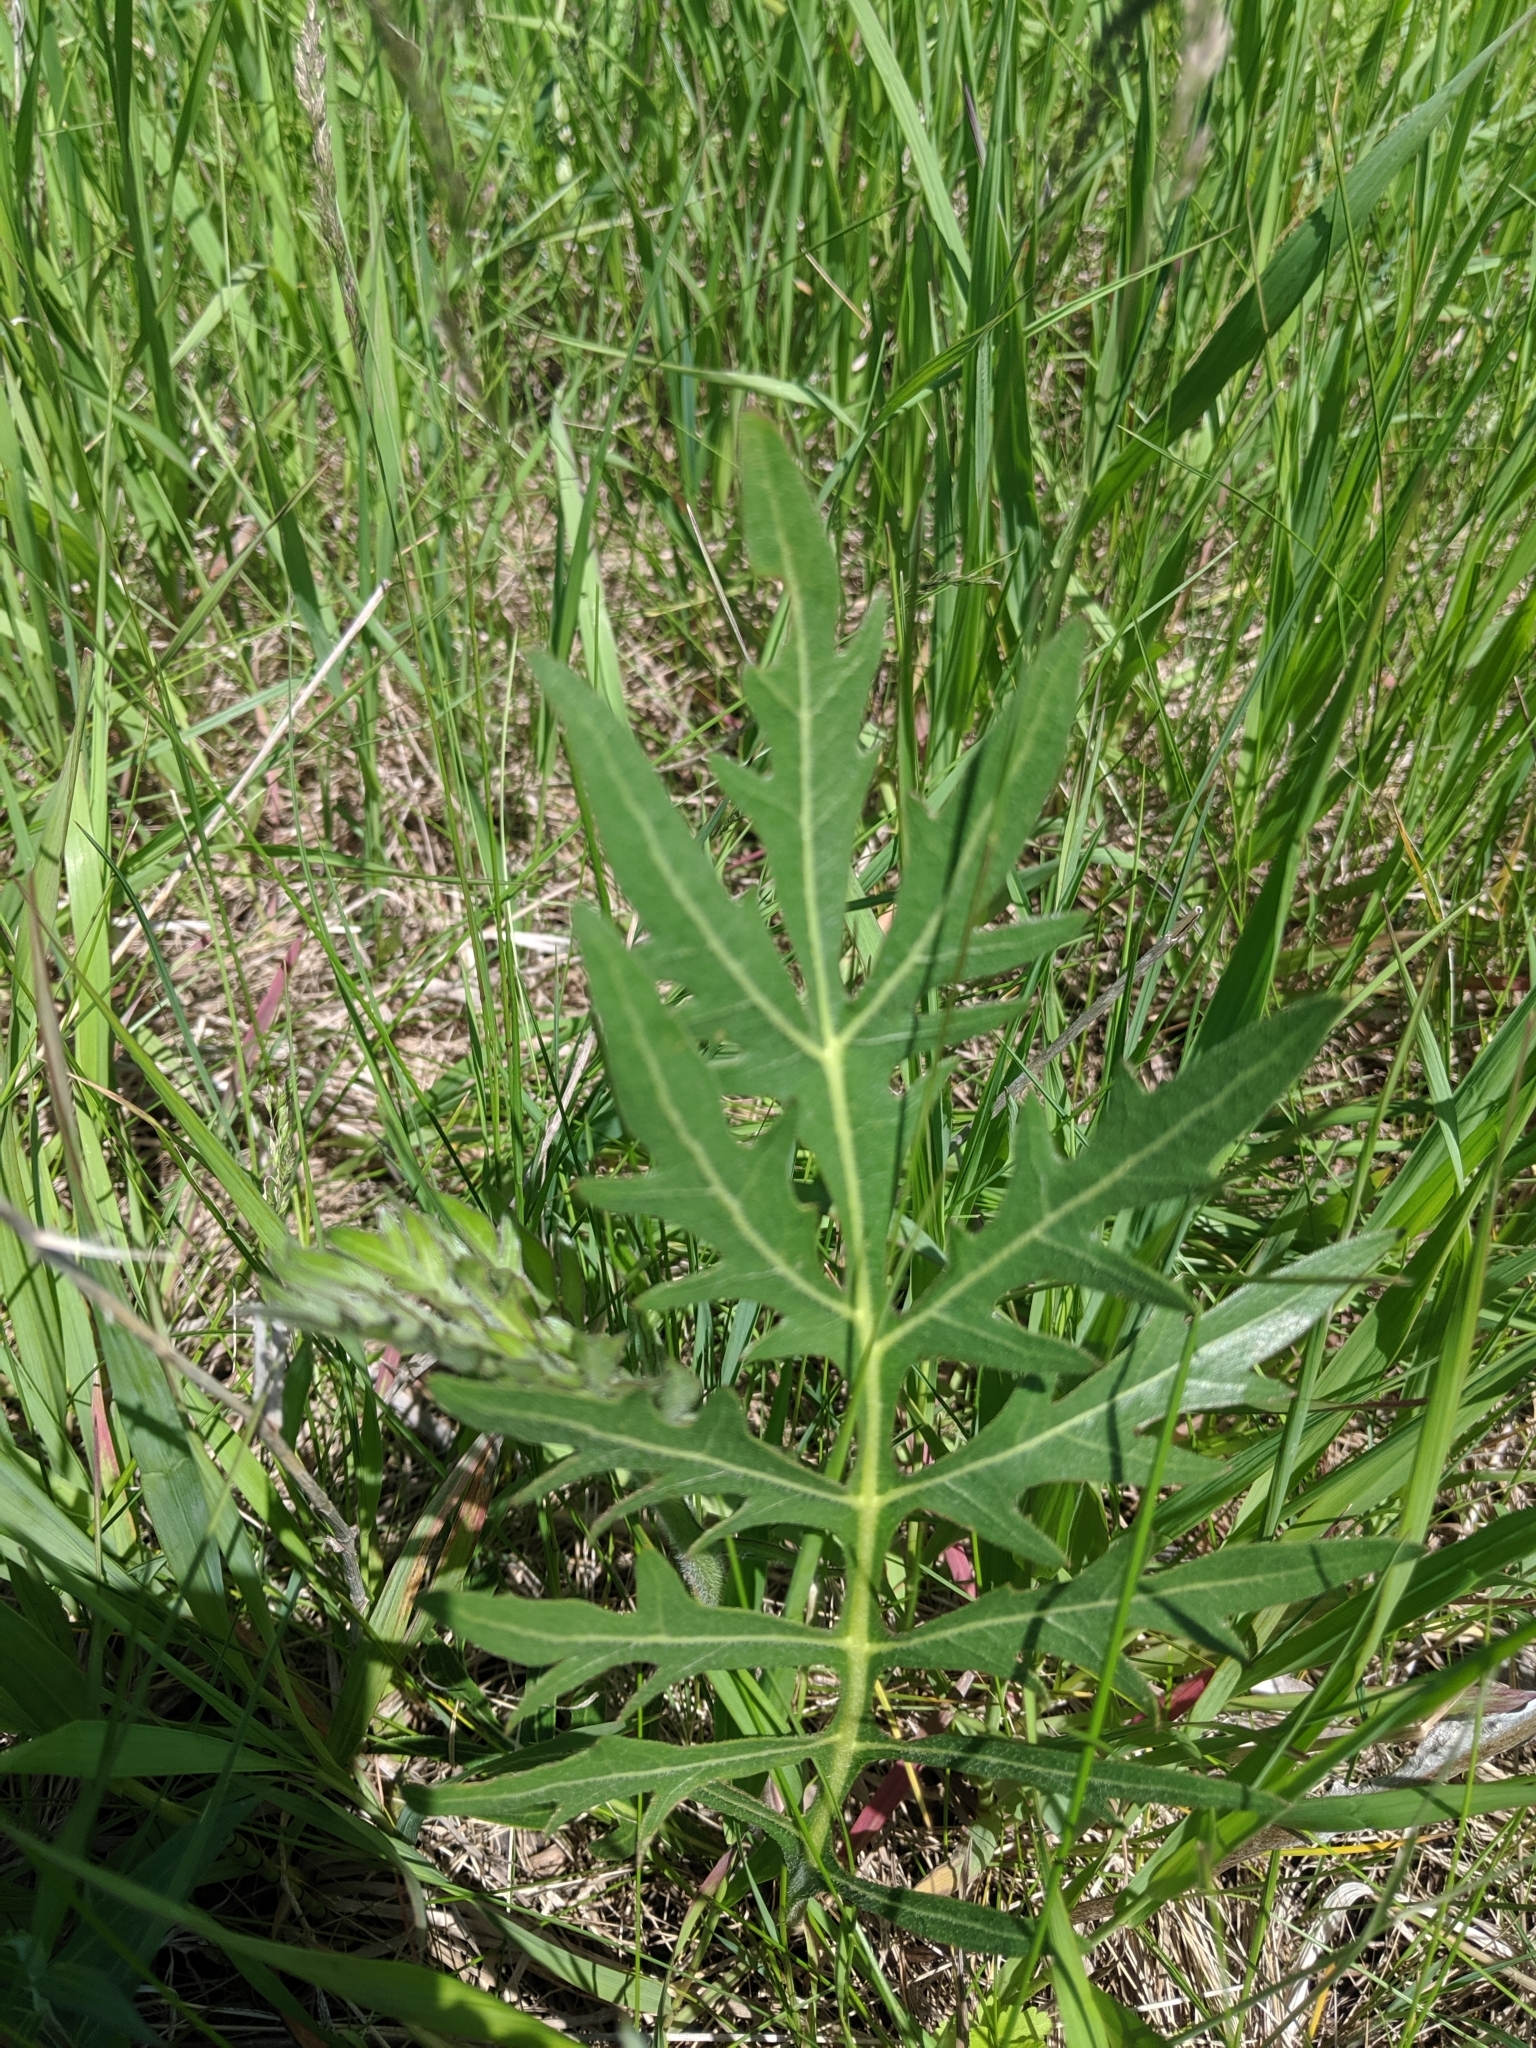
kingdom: Plantae
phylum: Tracheophyta
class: Magnoliopsida
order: Asterales
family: Asteraceae
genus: Silphium
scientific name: Silphium laciniatum
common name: Polarplant
